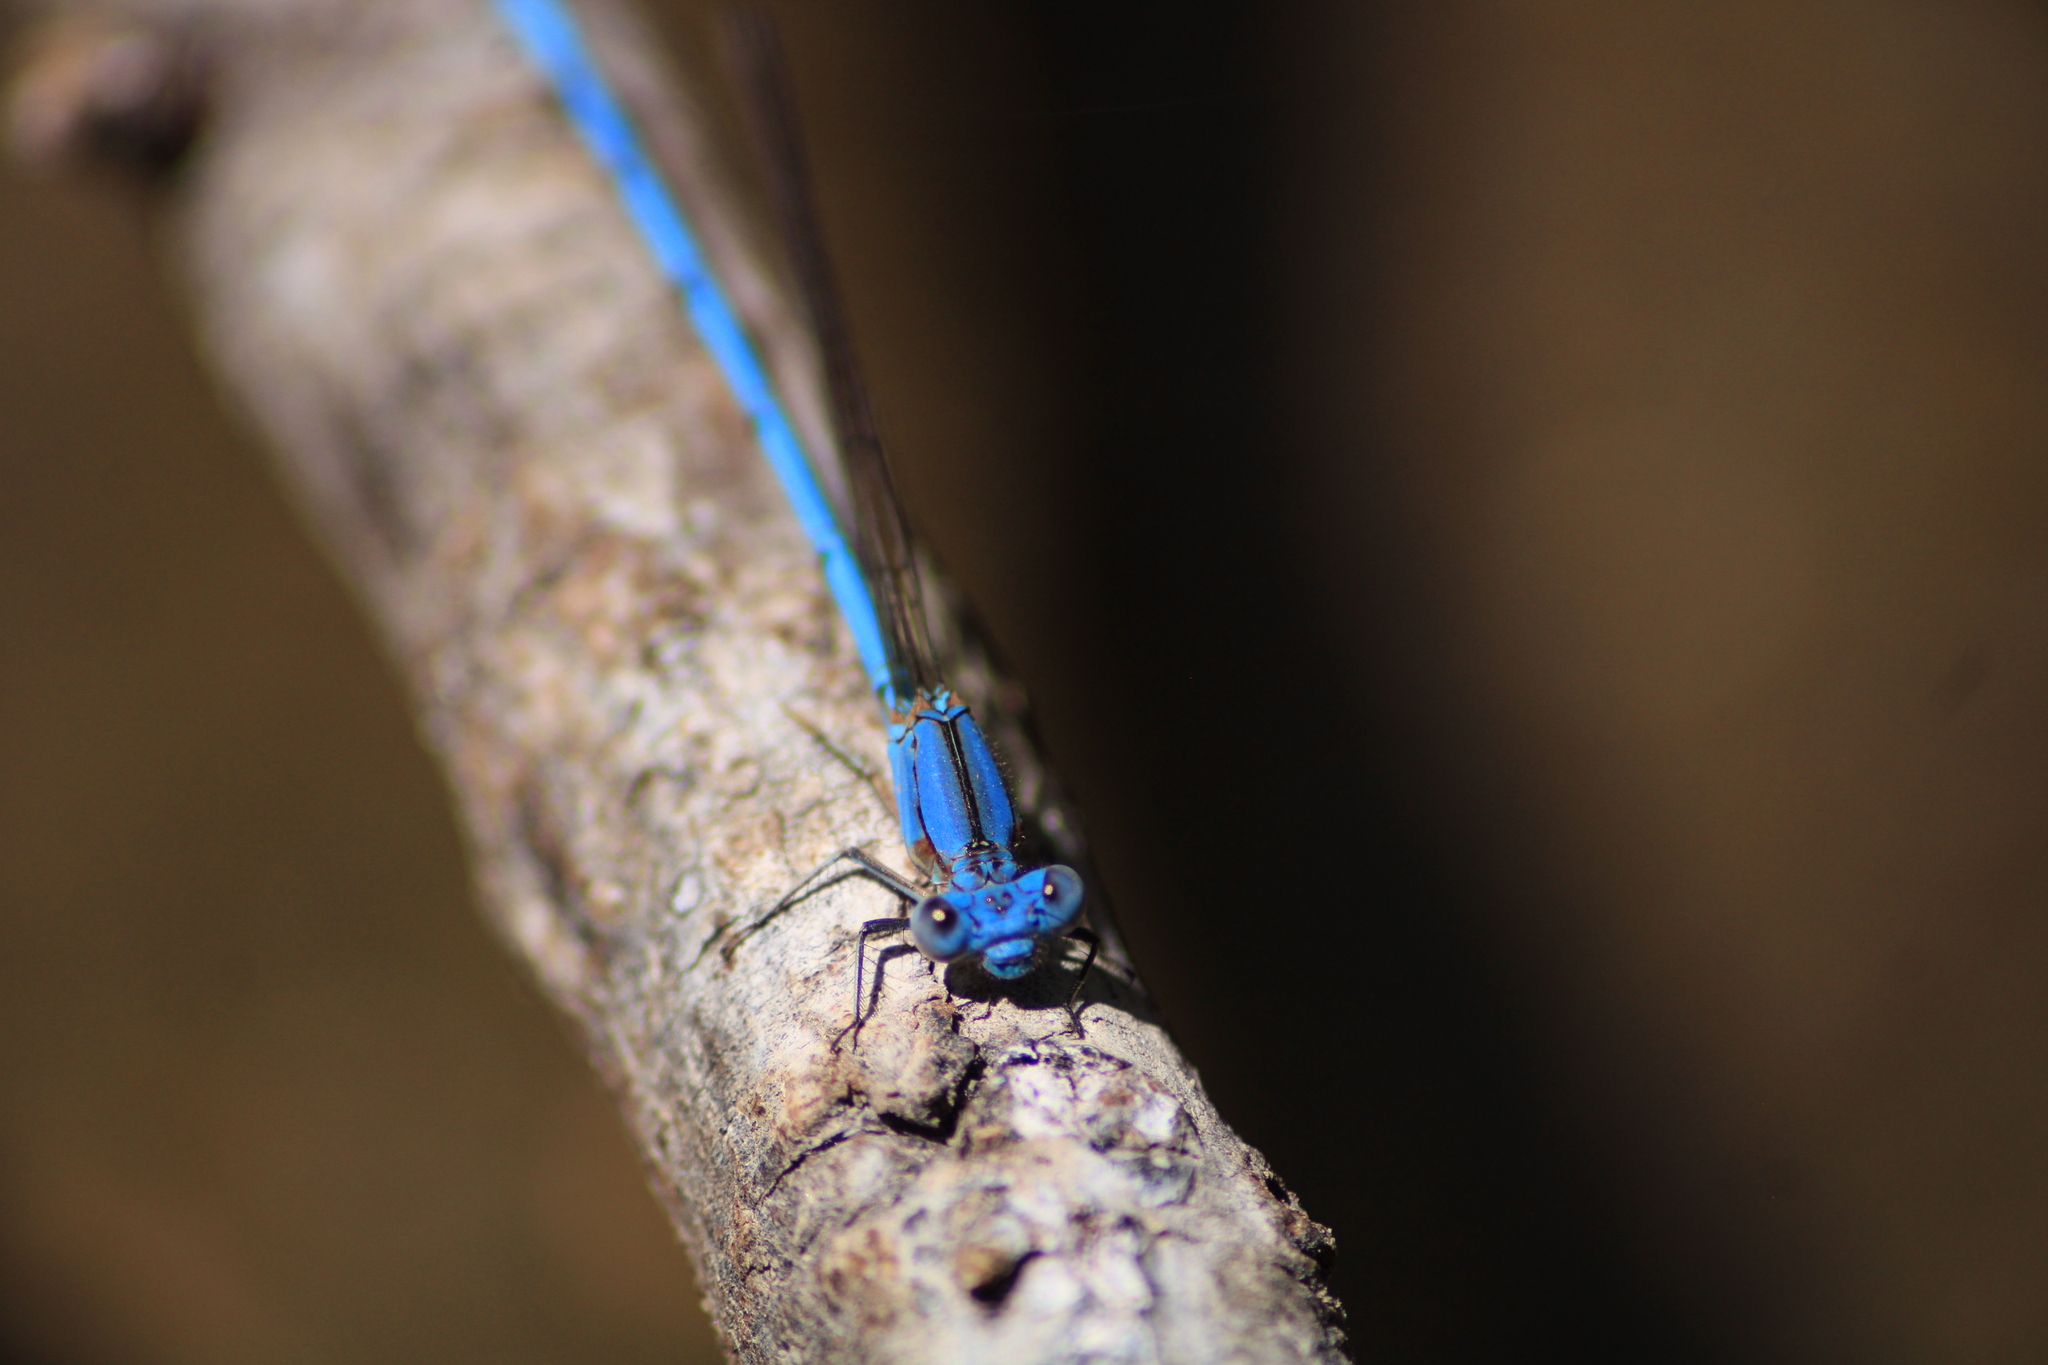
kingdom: Animalia
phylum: Arthropoda
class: Insecta
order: Odonata
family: Coenagrionidae
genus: Argia
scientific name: Argia anceps
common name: Cerulean dancer
